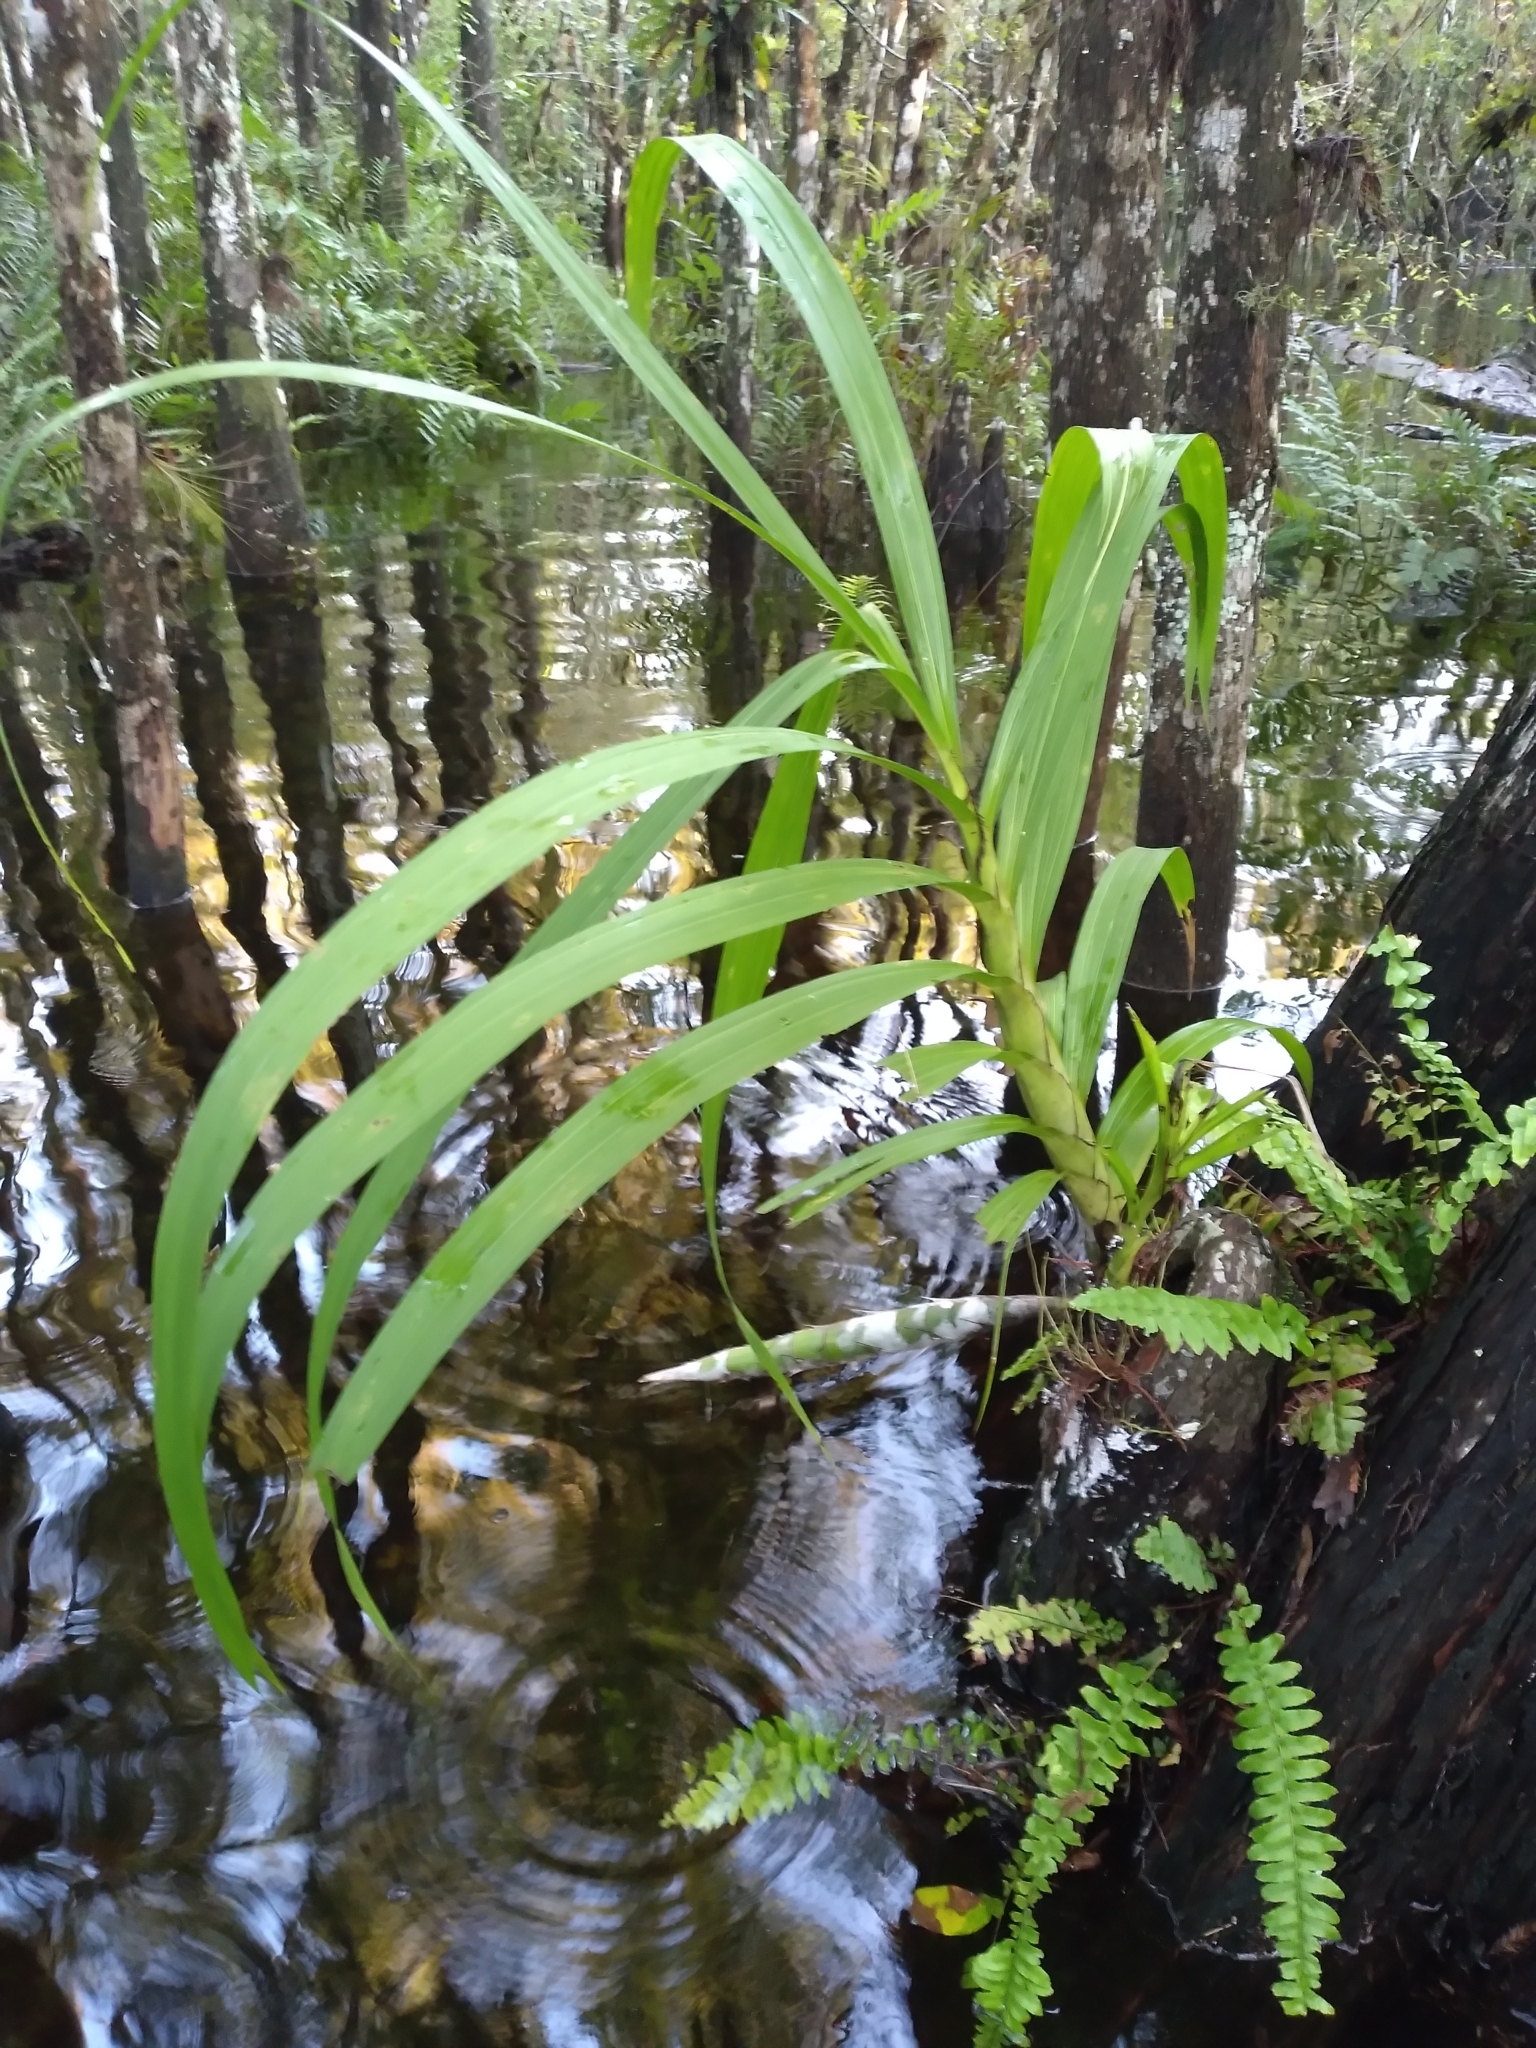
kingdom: Plantae
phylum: Tracheophyta
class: Liliopsida
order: Asparagales
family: Orchidaceae
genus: Cyrtopodium
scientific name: Cyrtopodium punctatum
